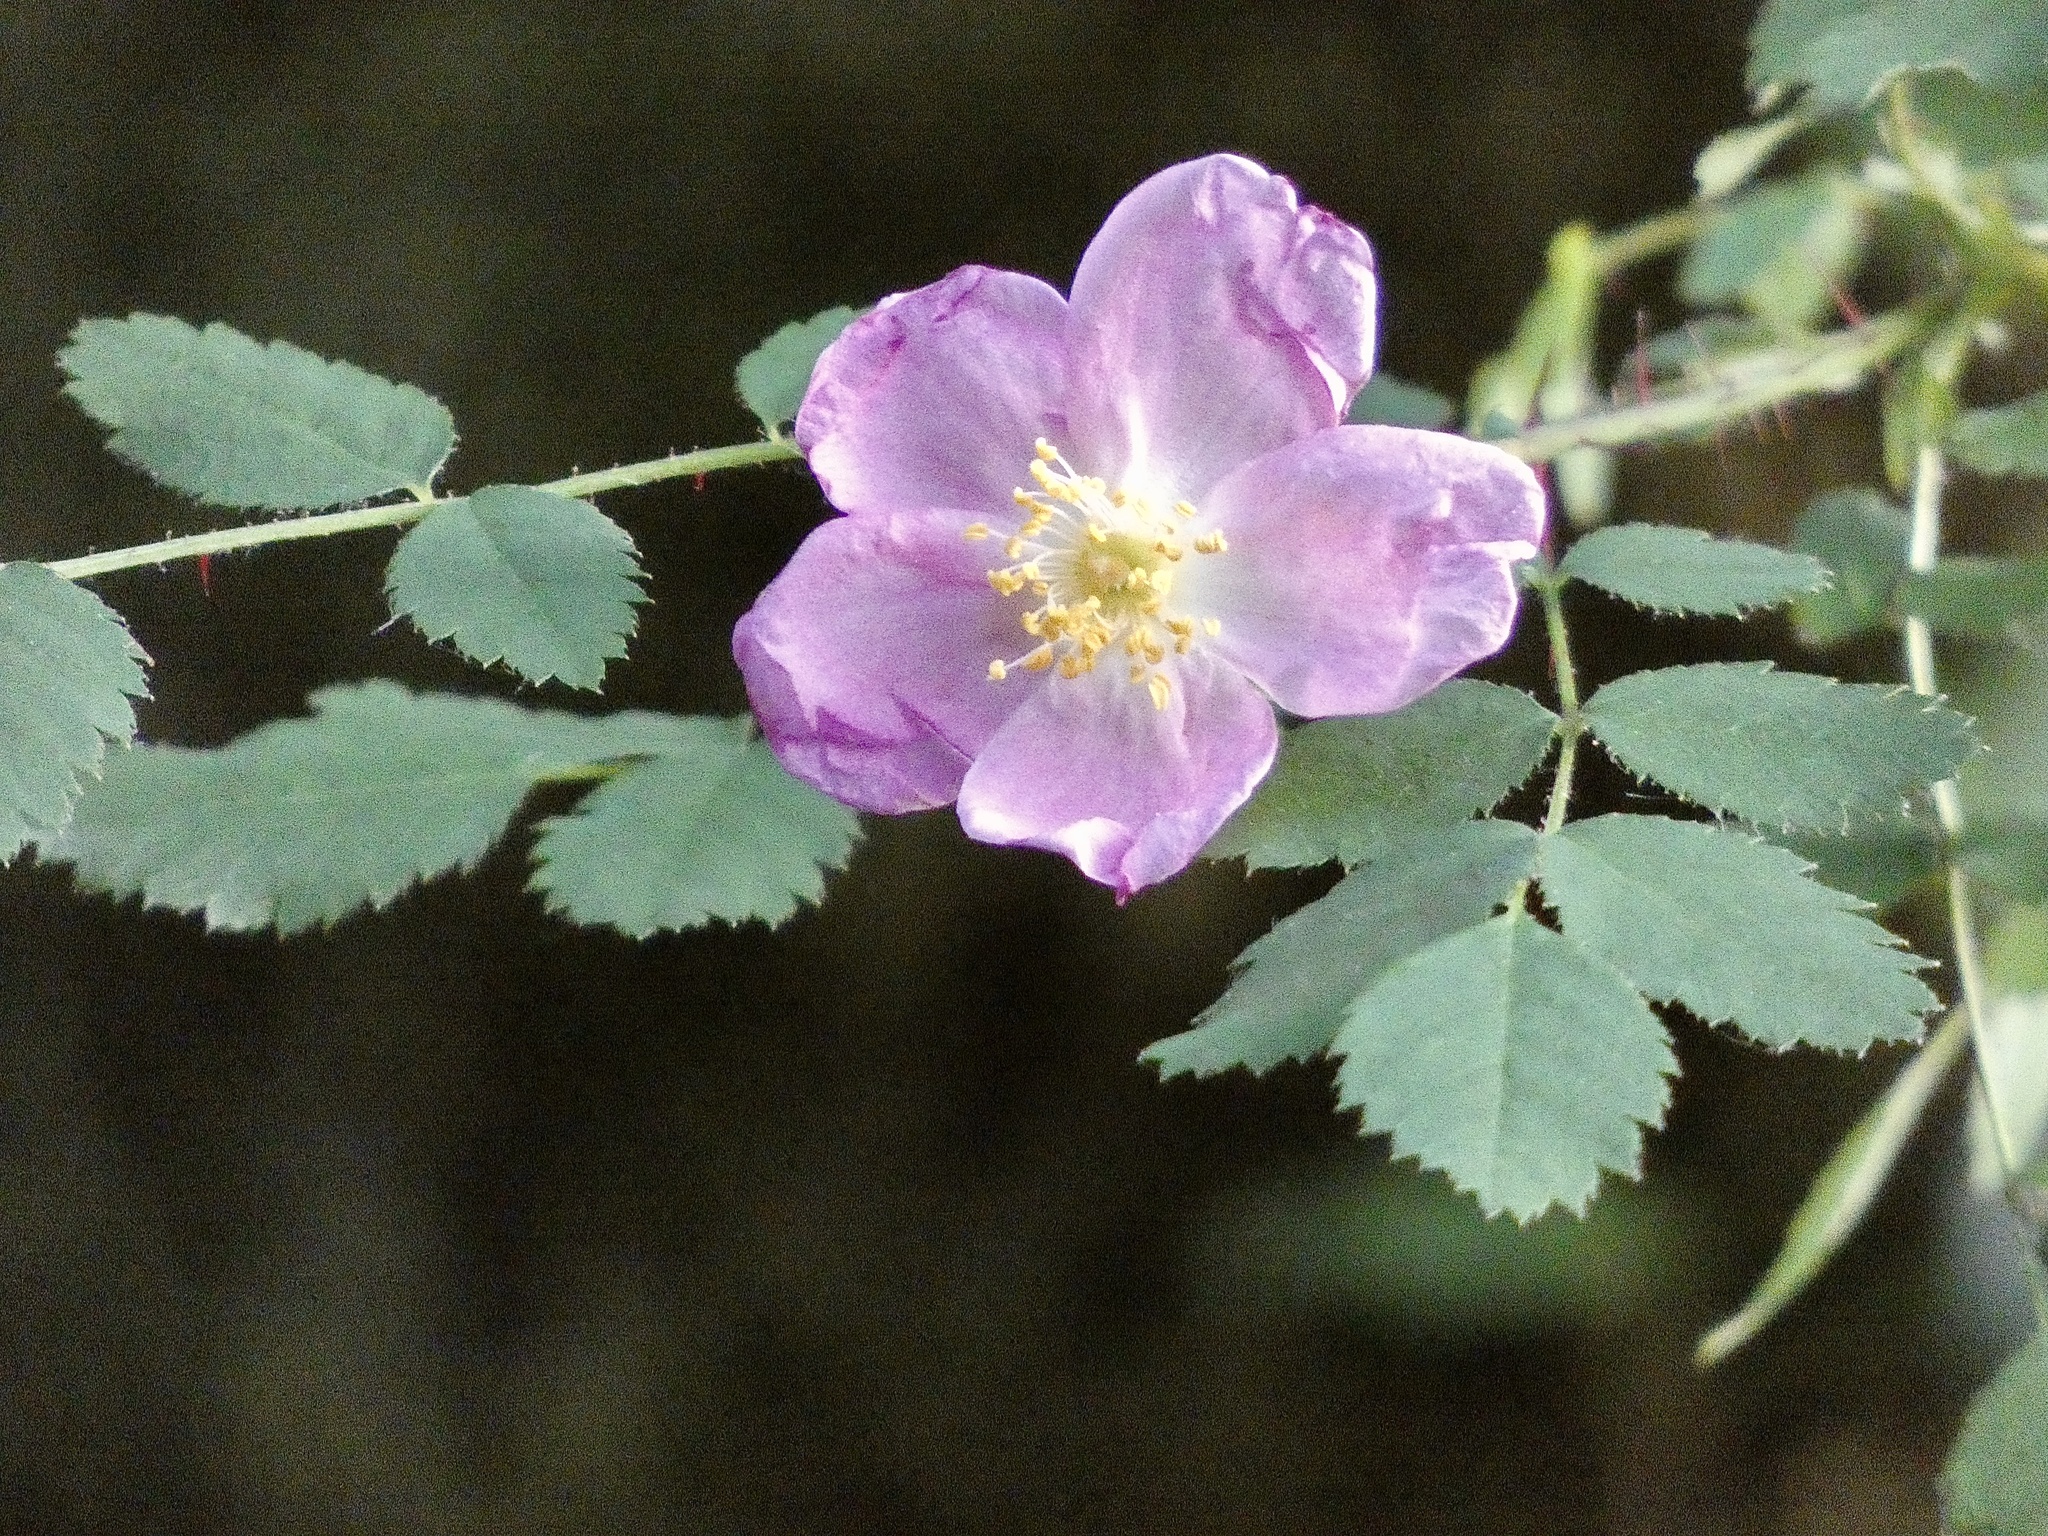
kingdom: Plantae
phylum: Tracheophyta
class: Magnoliopsida
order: Rosales
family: Rosaceae
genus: Rosa
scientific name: Rosa gymnocarpa
